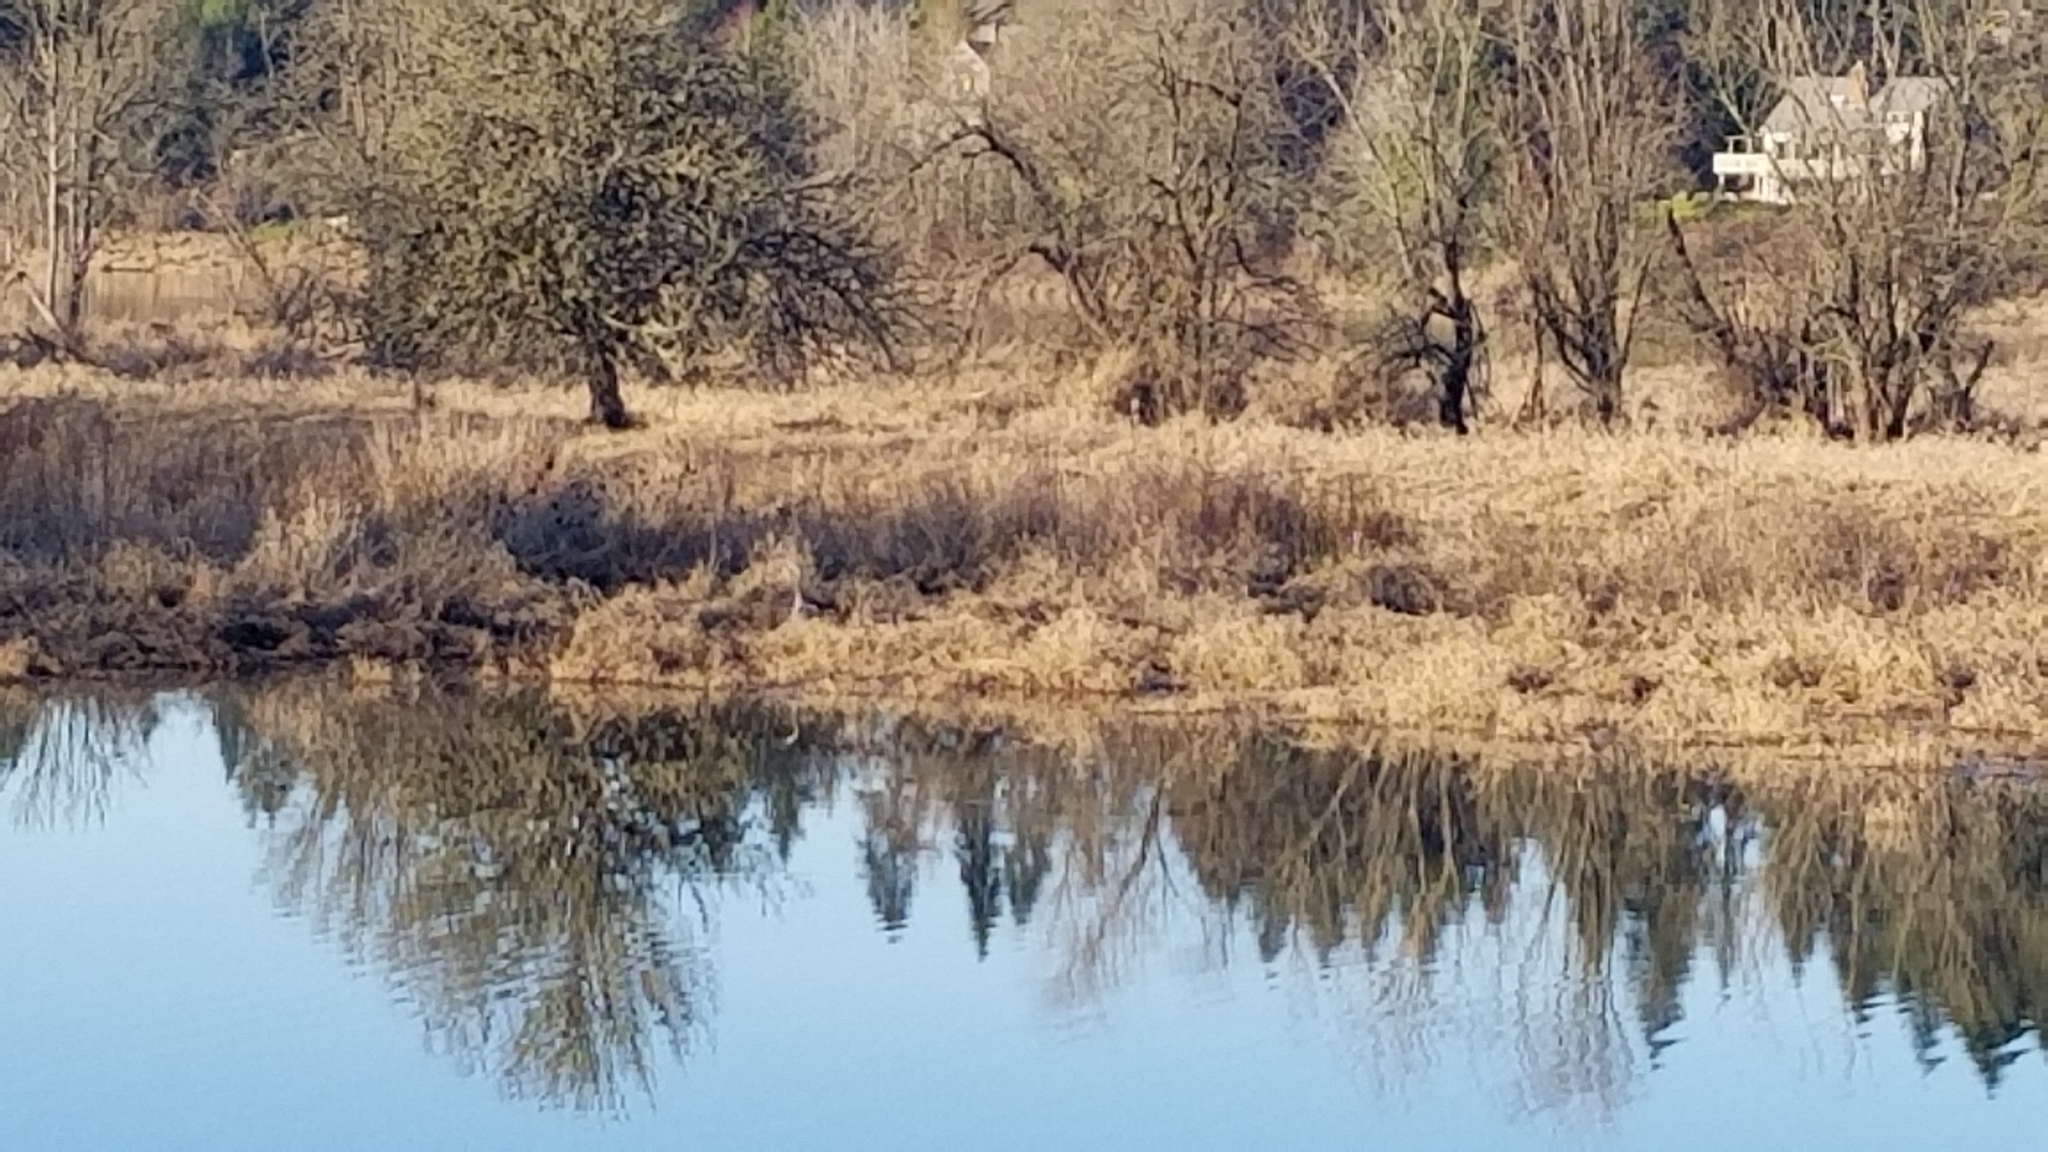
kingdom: Animalia
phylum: Chordata
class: Aves
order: Pelecaniformes
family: Ardeidae
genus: Ardea
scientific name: Ardea herodias
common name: Great blue heron
